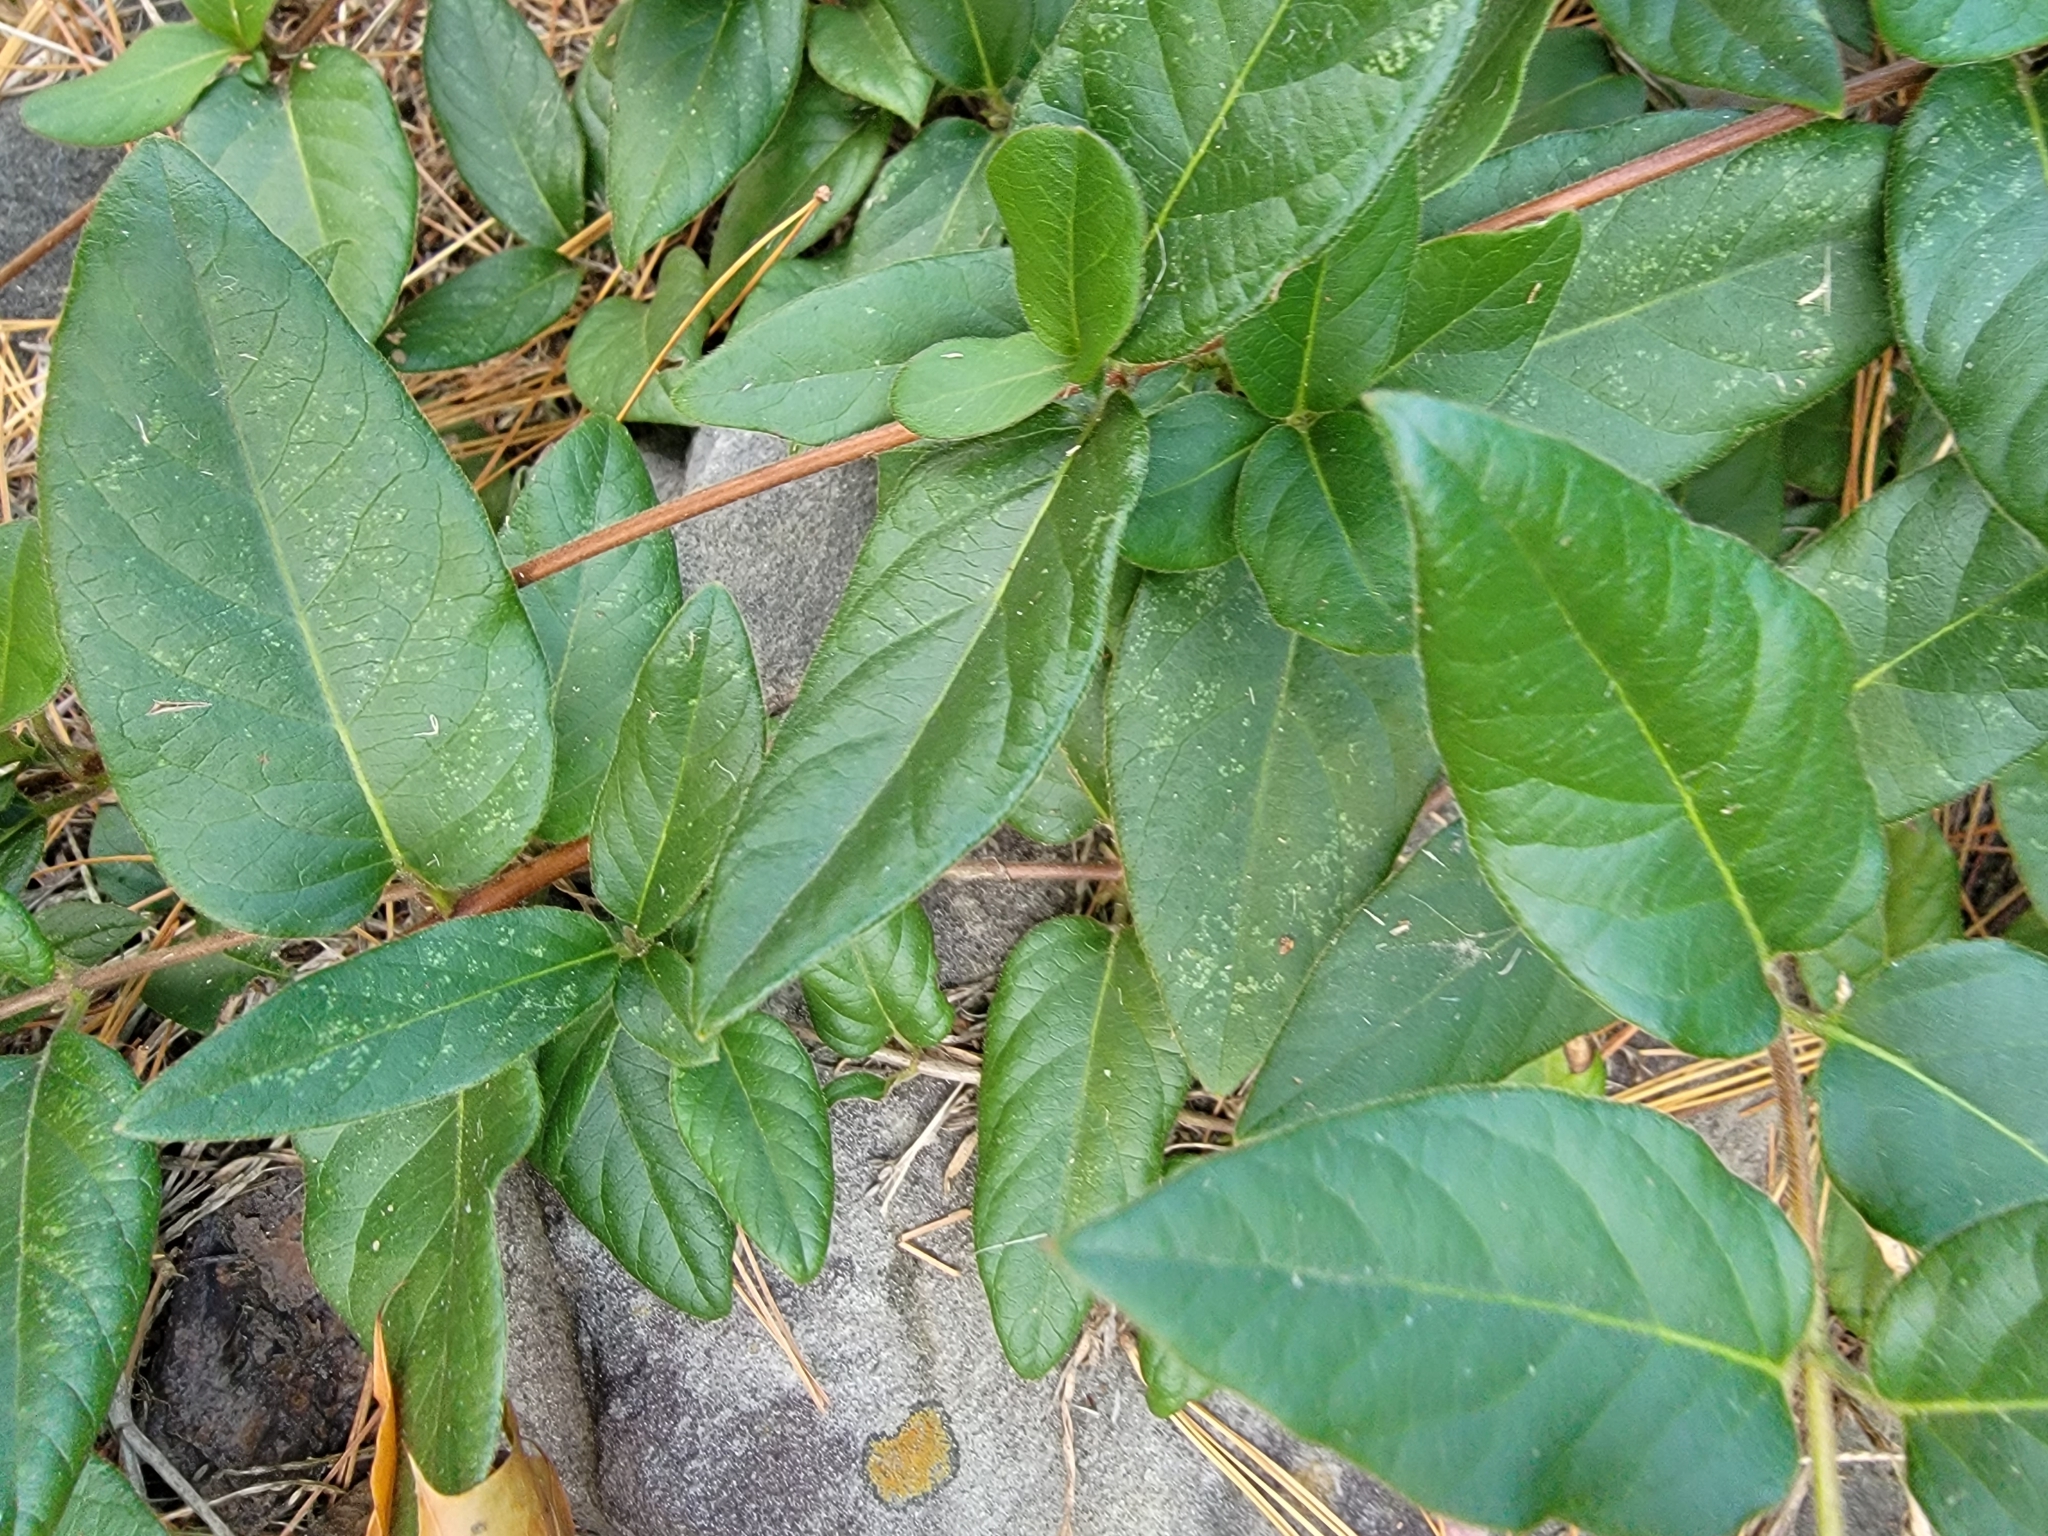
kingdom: Plantae
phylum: Tracheophyta
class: Magnoliopsida
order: Dipsacales
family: Caprifoliaceae
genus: Lonicera
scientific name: Lonicera japonica
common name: Japanese honeysuckle
